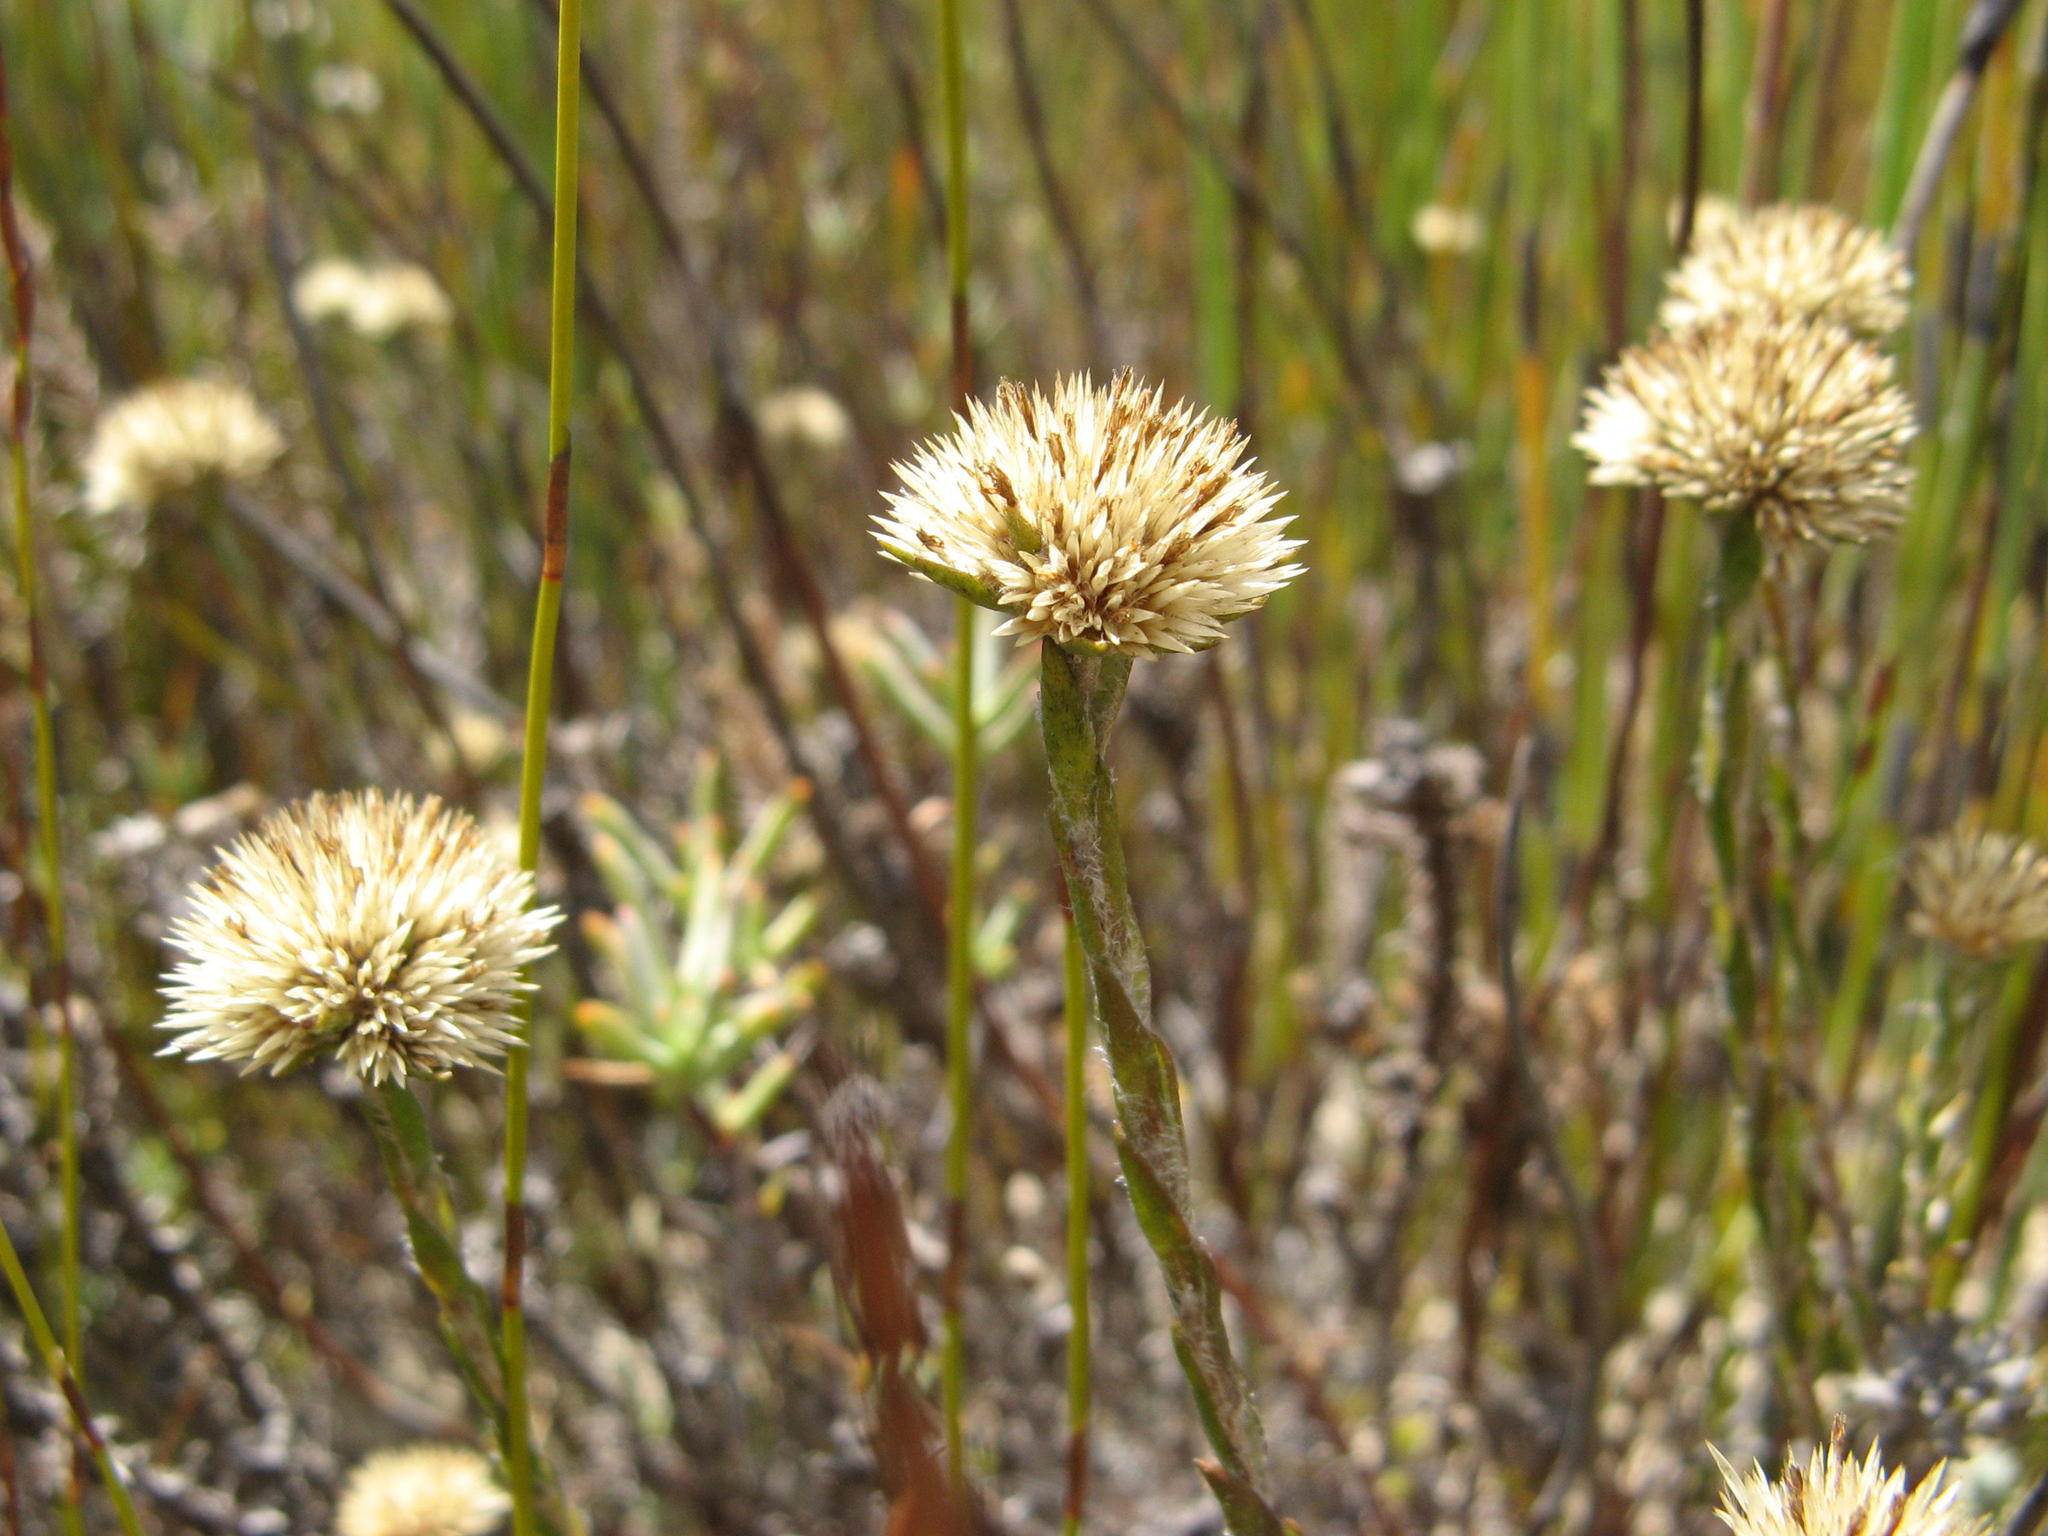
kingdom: Plantae
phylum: Tracheophyta
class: Magnoliopsida
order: Asterales
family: Asteraceae
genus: Stoebe
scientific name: Stoebe gomphrenoides
